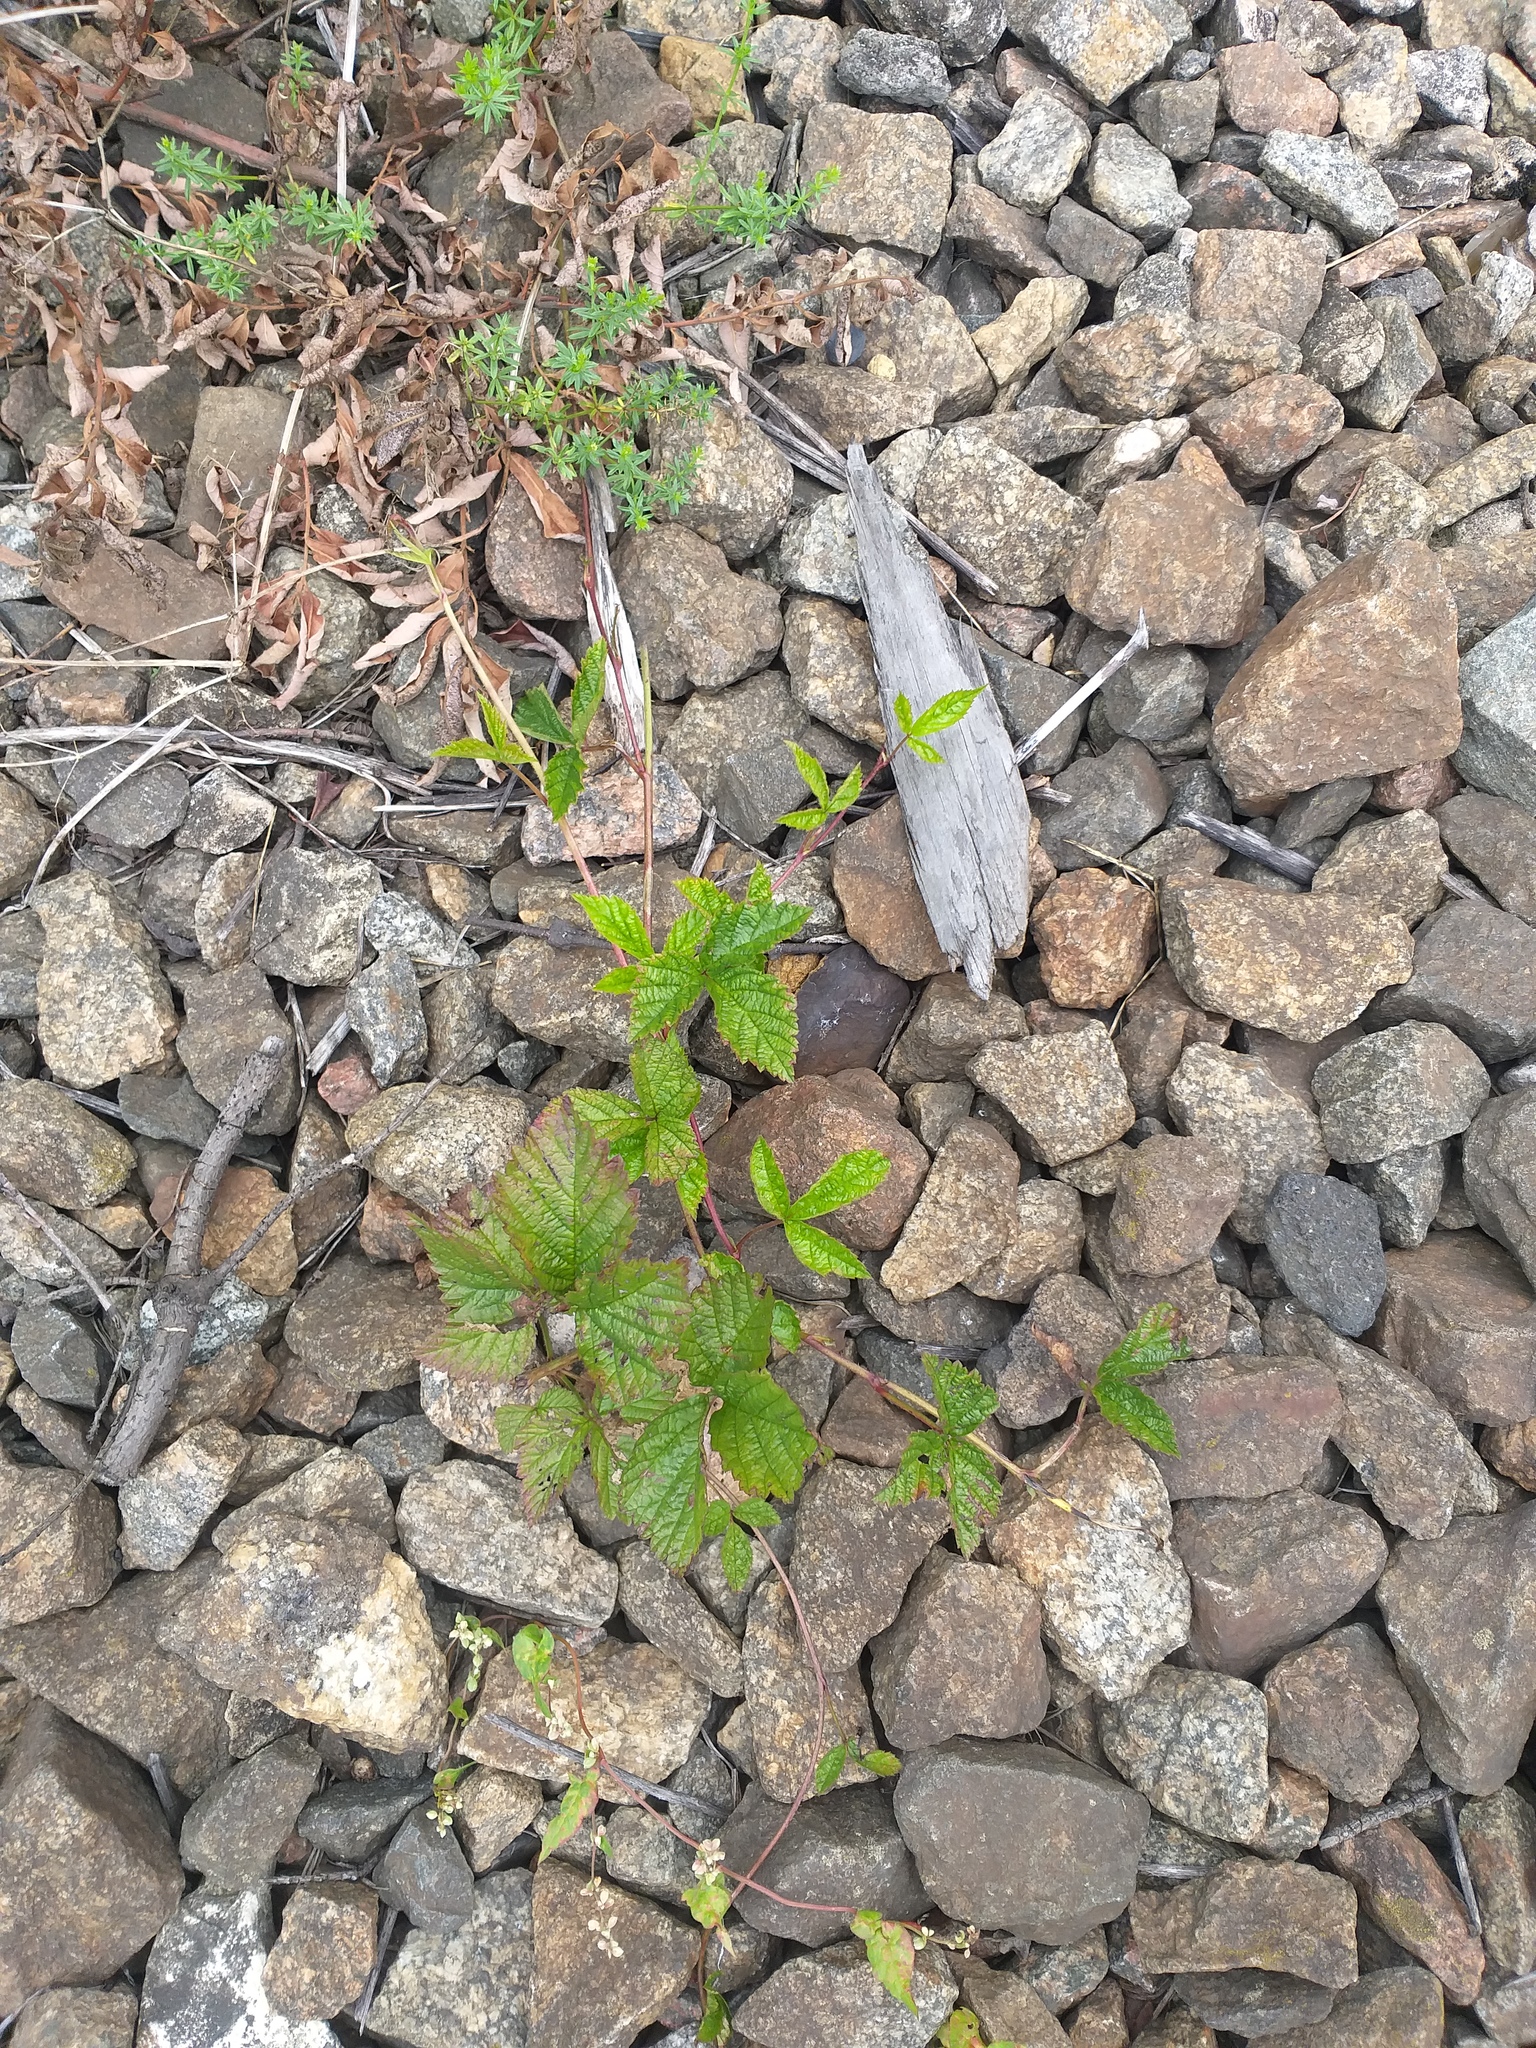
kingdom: Plantae
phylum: Tracheophyta
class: Magnoliopsida
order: Rosales
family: Rosaceae
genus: Rubus
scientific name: Rubus saxatilis
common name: Stone bramble
